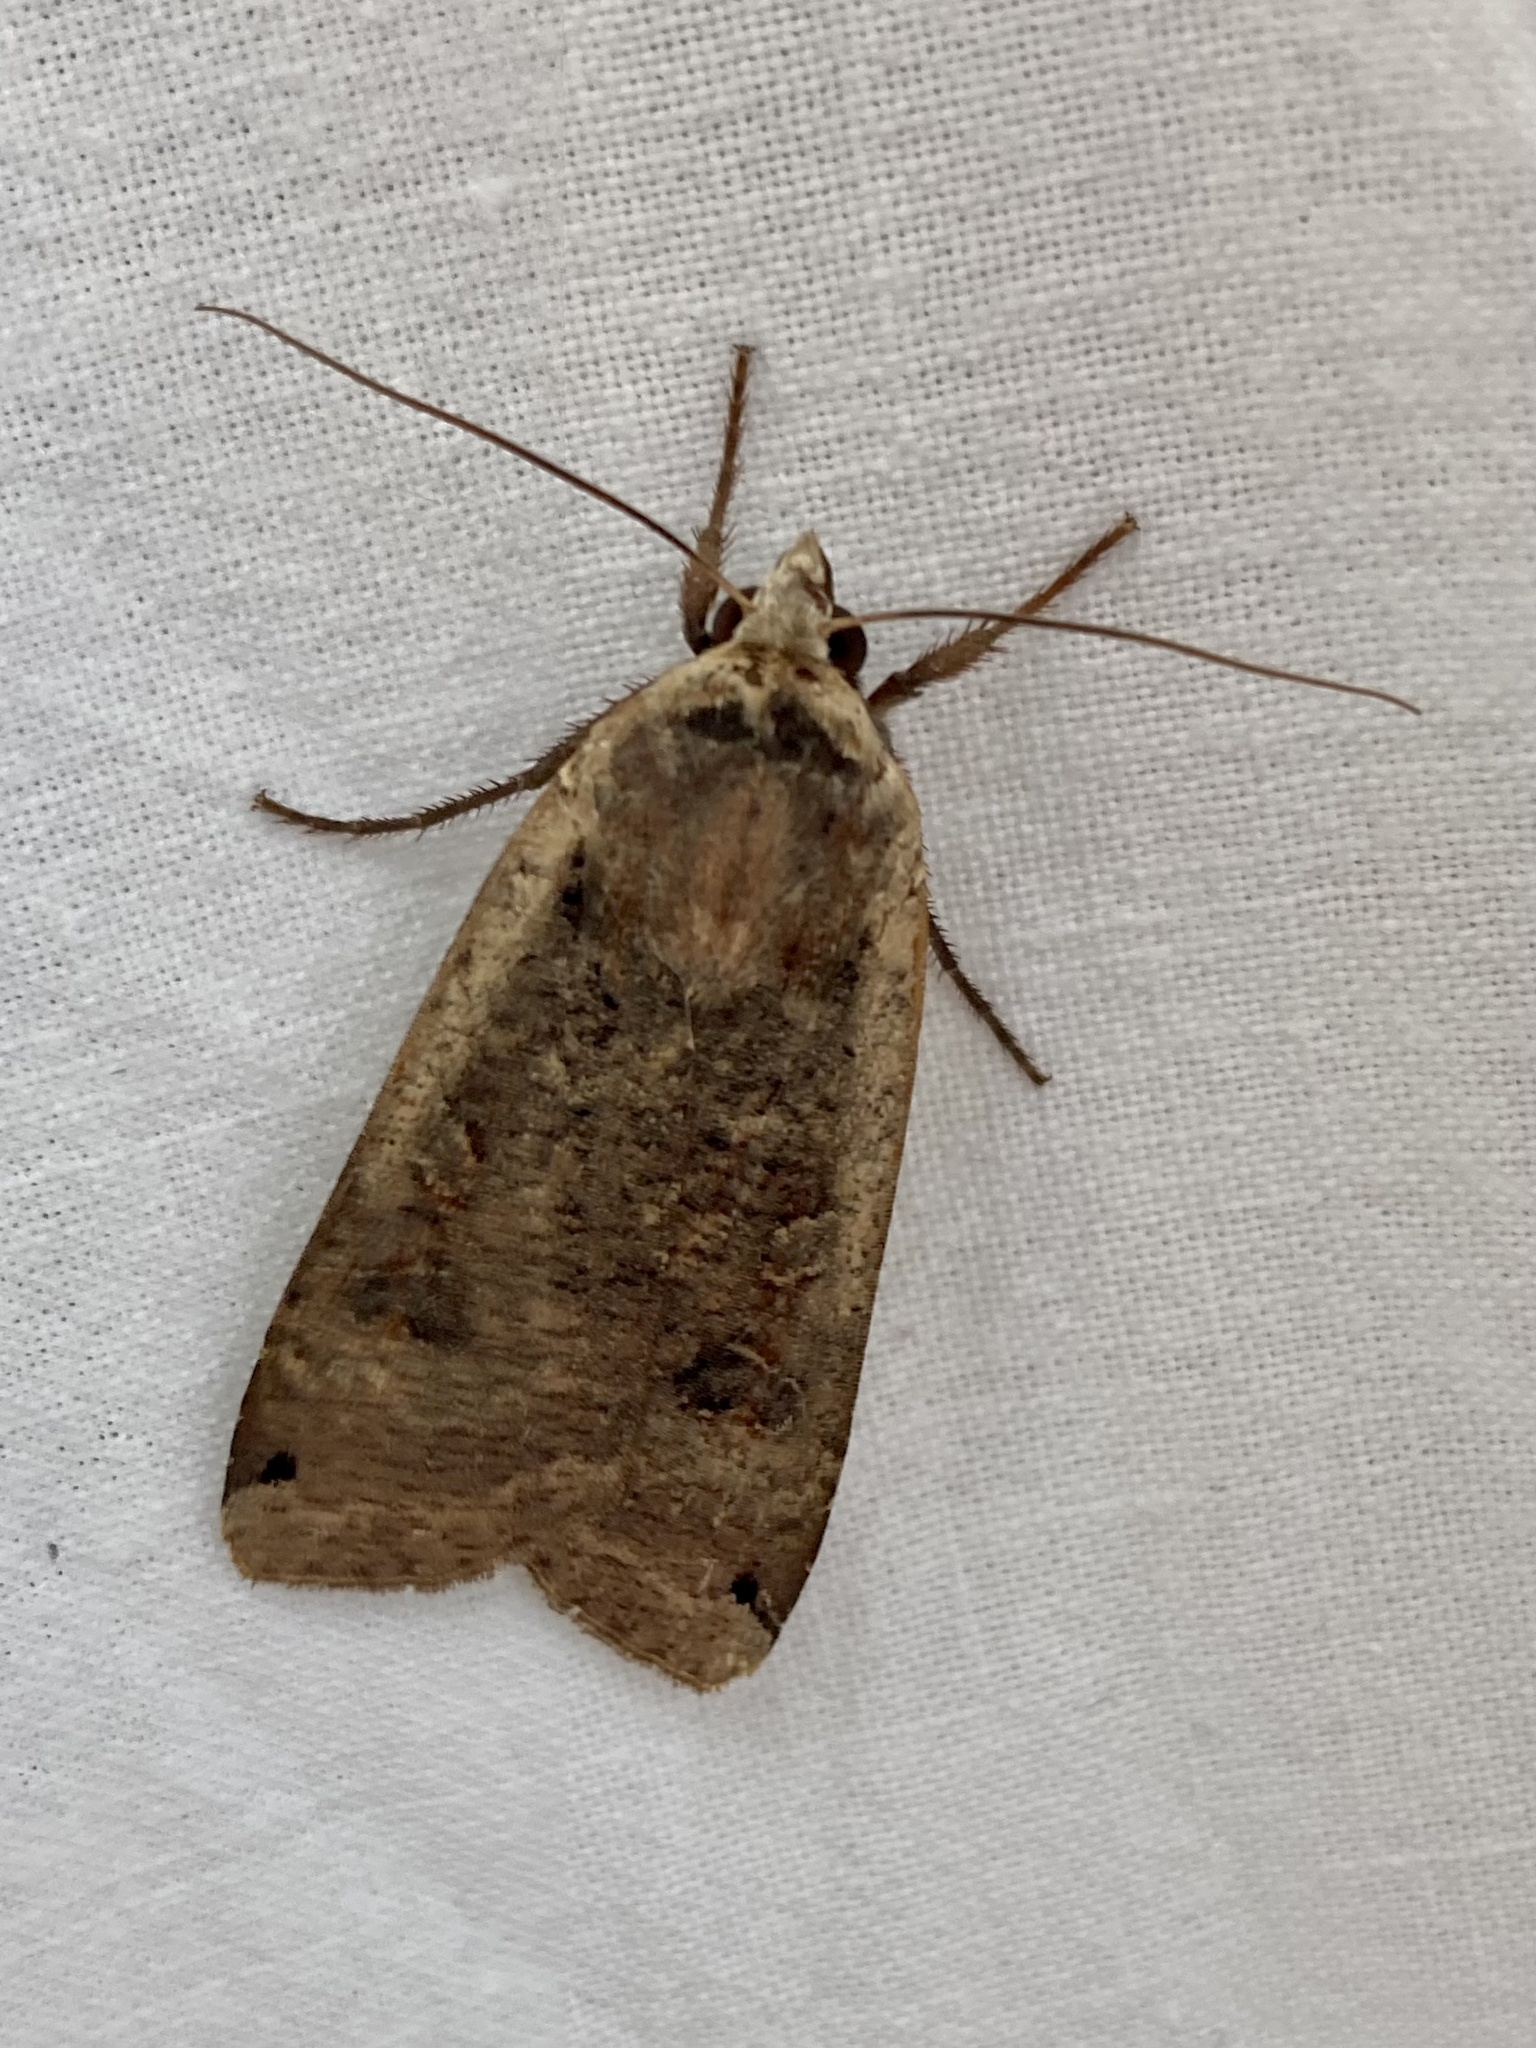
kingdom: Animalia
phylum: Arthropoda
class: Insecta
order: Lepidoptera
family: Noctuidae
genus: Noctua
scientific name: Noctua pronuba
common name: Large yellow underwing
